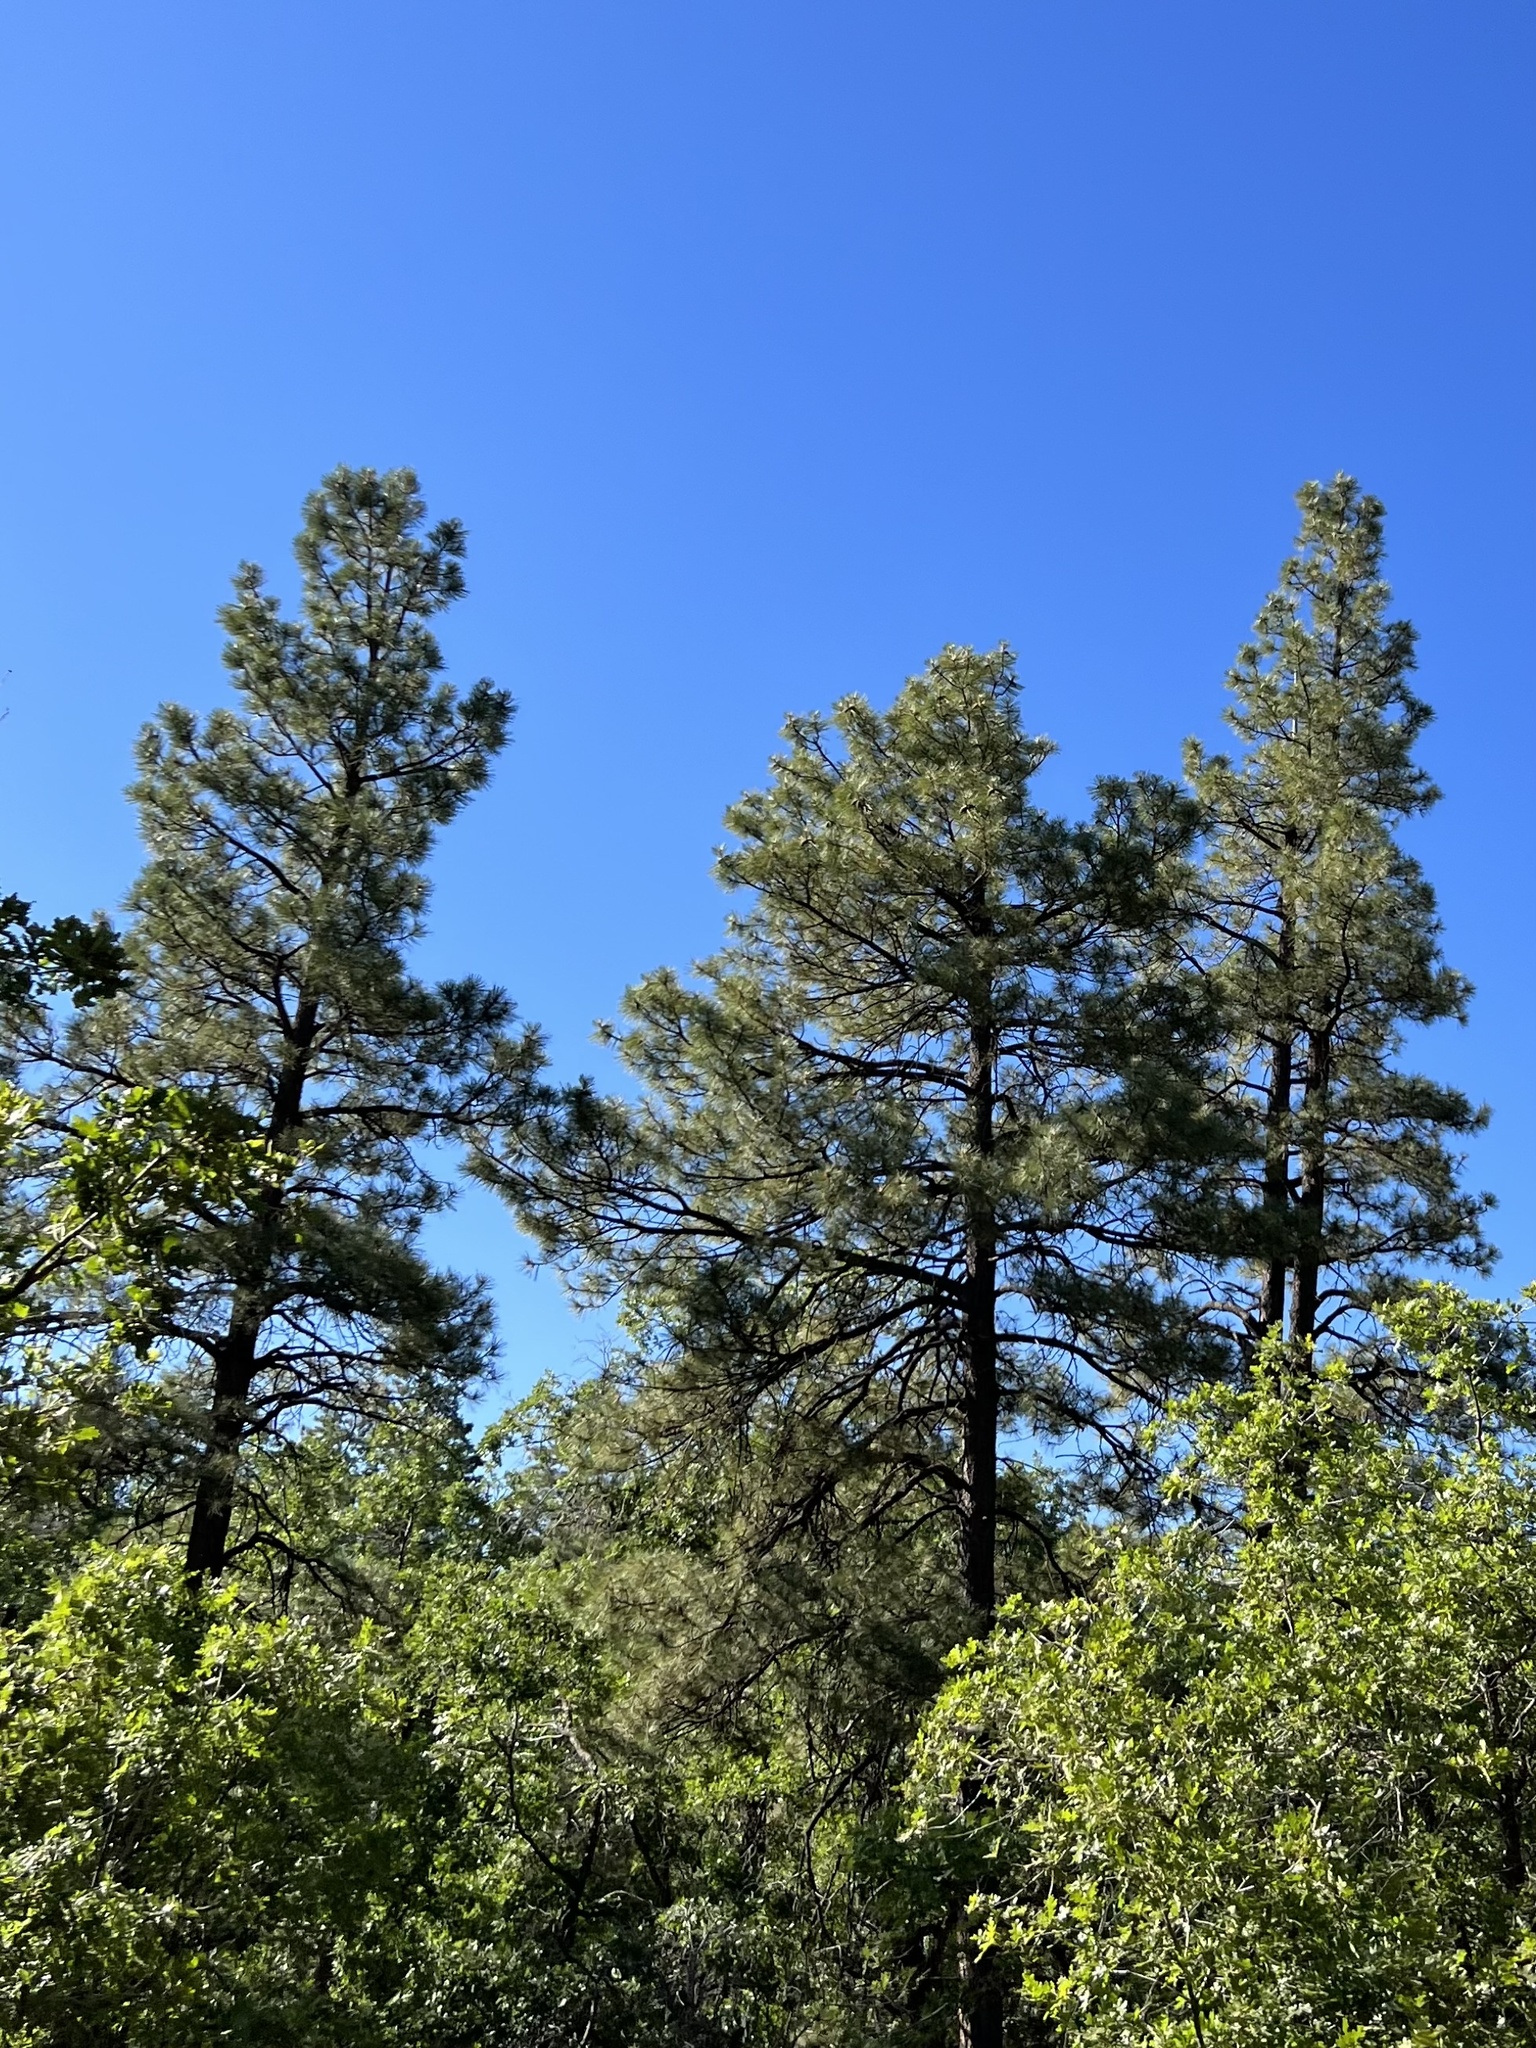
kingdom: Plantae
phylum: Tracheophyta
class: Pinopsida
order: Pinales
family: Pinaceae
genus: Pinus
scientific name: Pinus ponderosa
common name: Western yellow-pine
